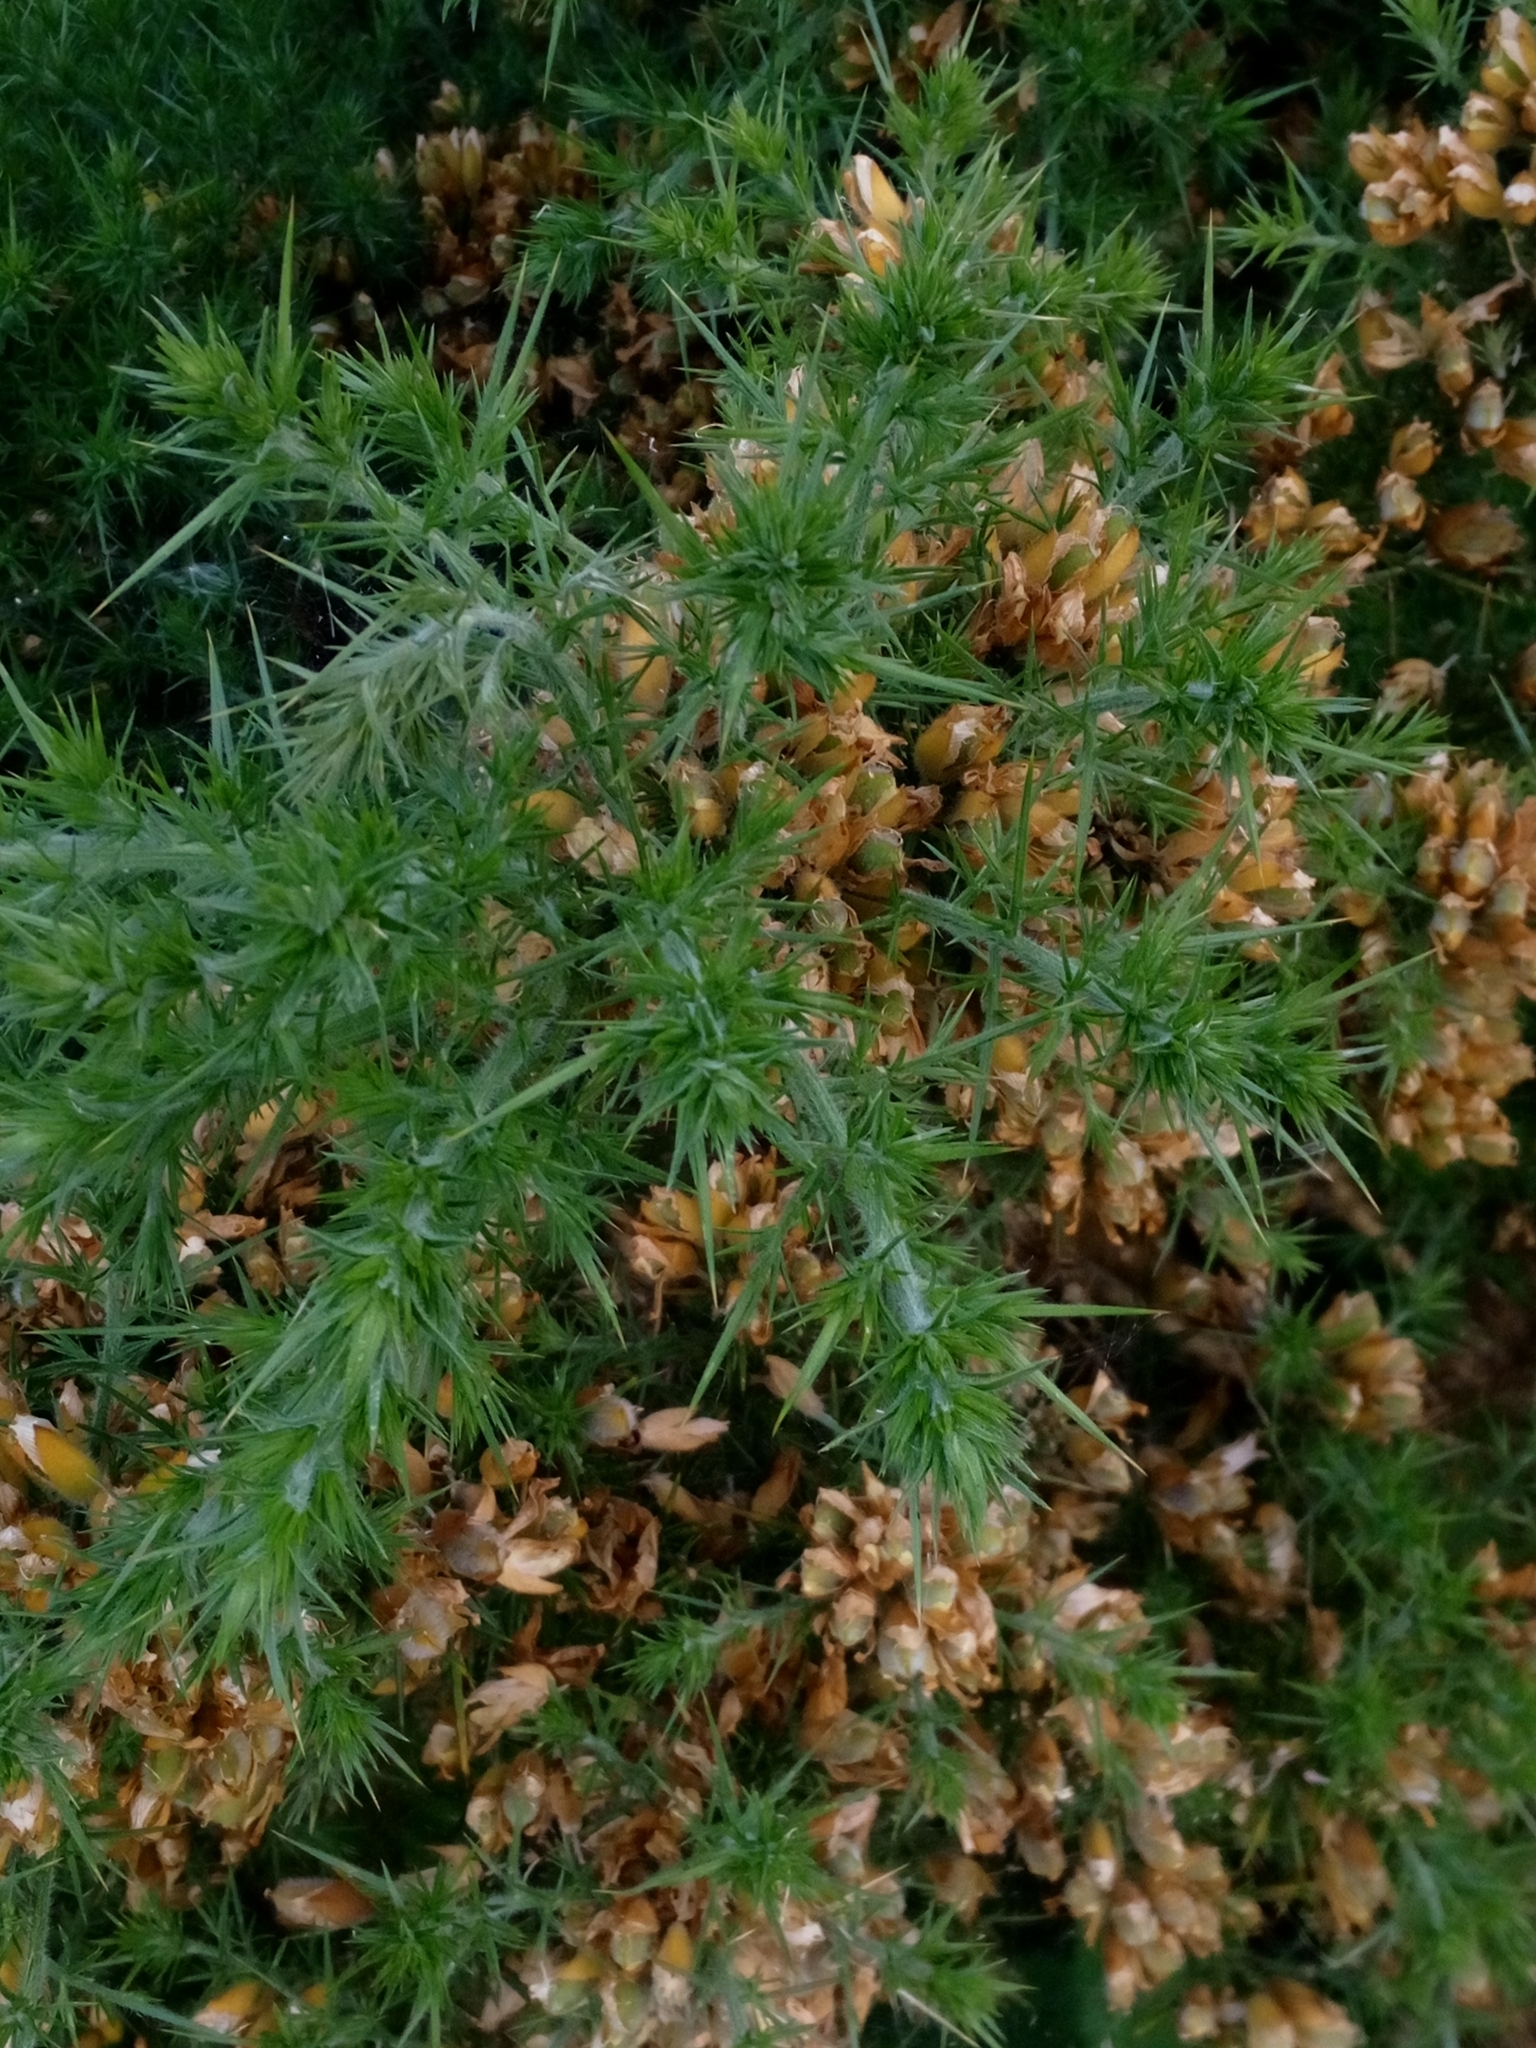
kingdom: Plantae
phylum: Tracheophyta
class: Magnoliopsida
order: Fabales
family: Fabaceae
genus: Ulex
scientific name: Ulex europaeus
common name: Common gorse
